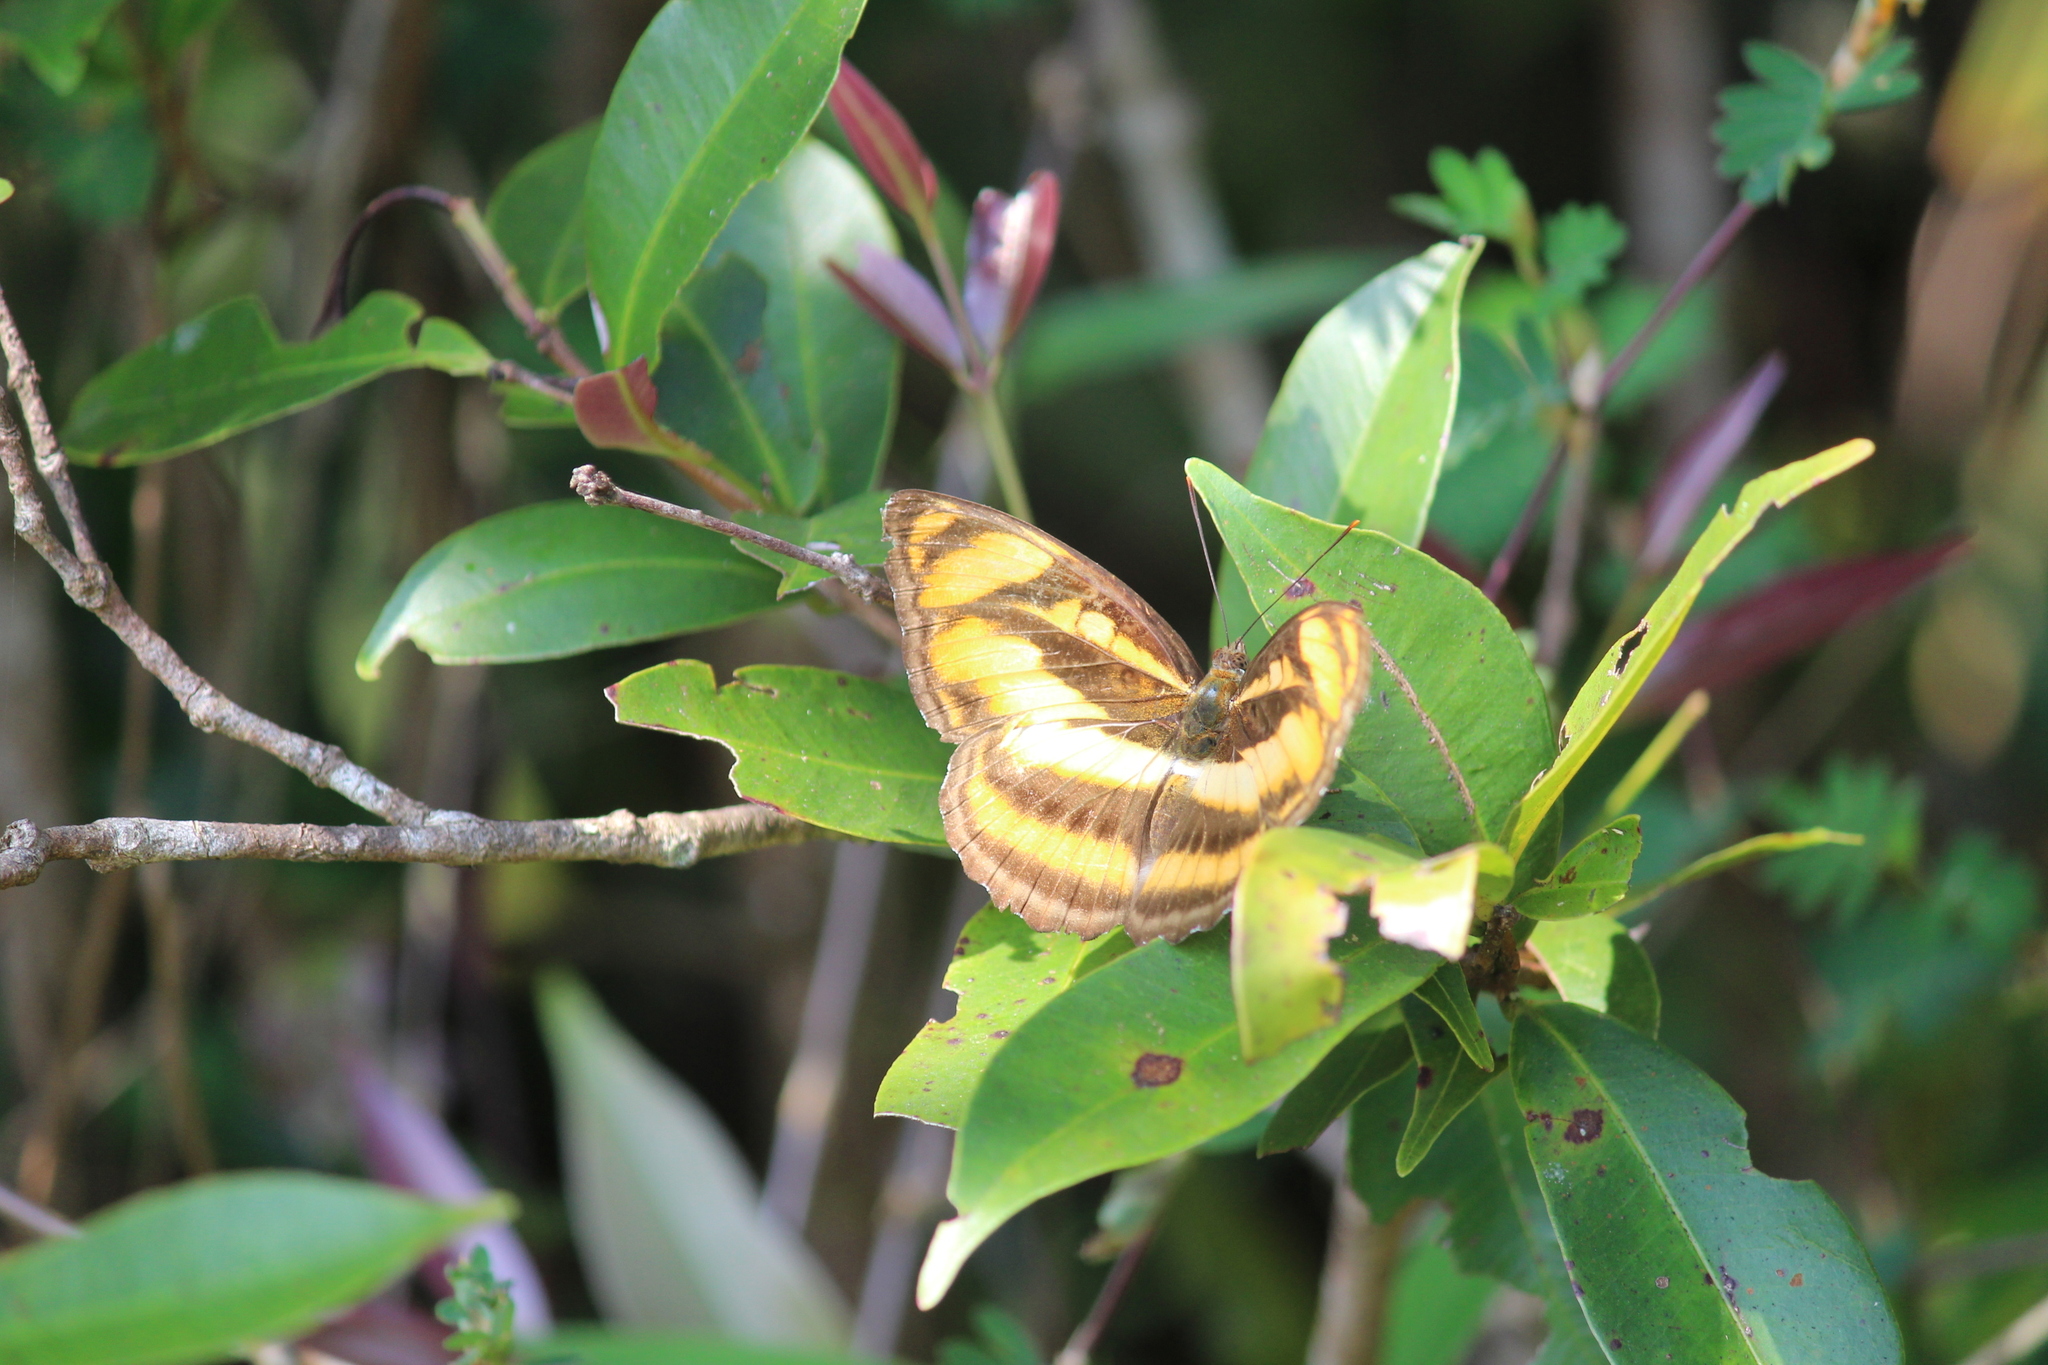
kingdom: Animalia
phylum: Arthropoda
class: Insecta
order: Lepidoptera
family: Nymphalidae
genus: Parathyma
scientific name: Parathyma nefte
